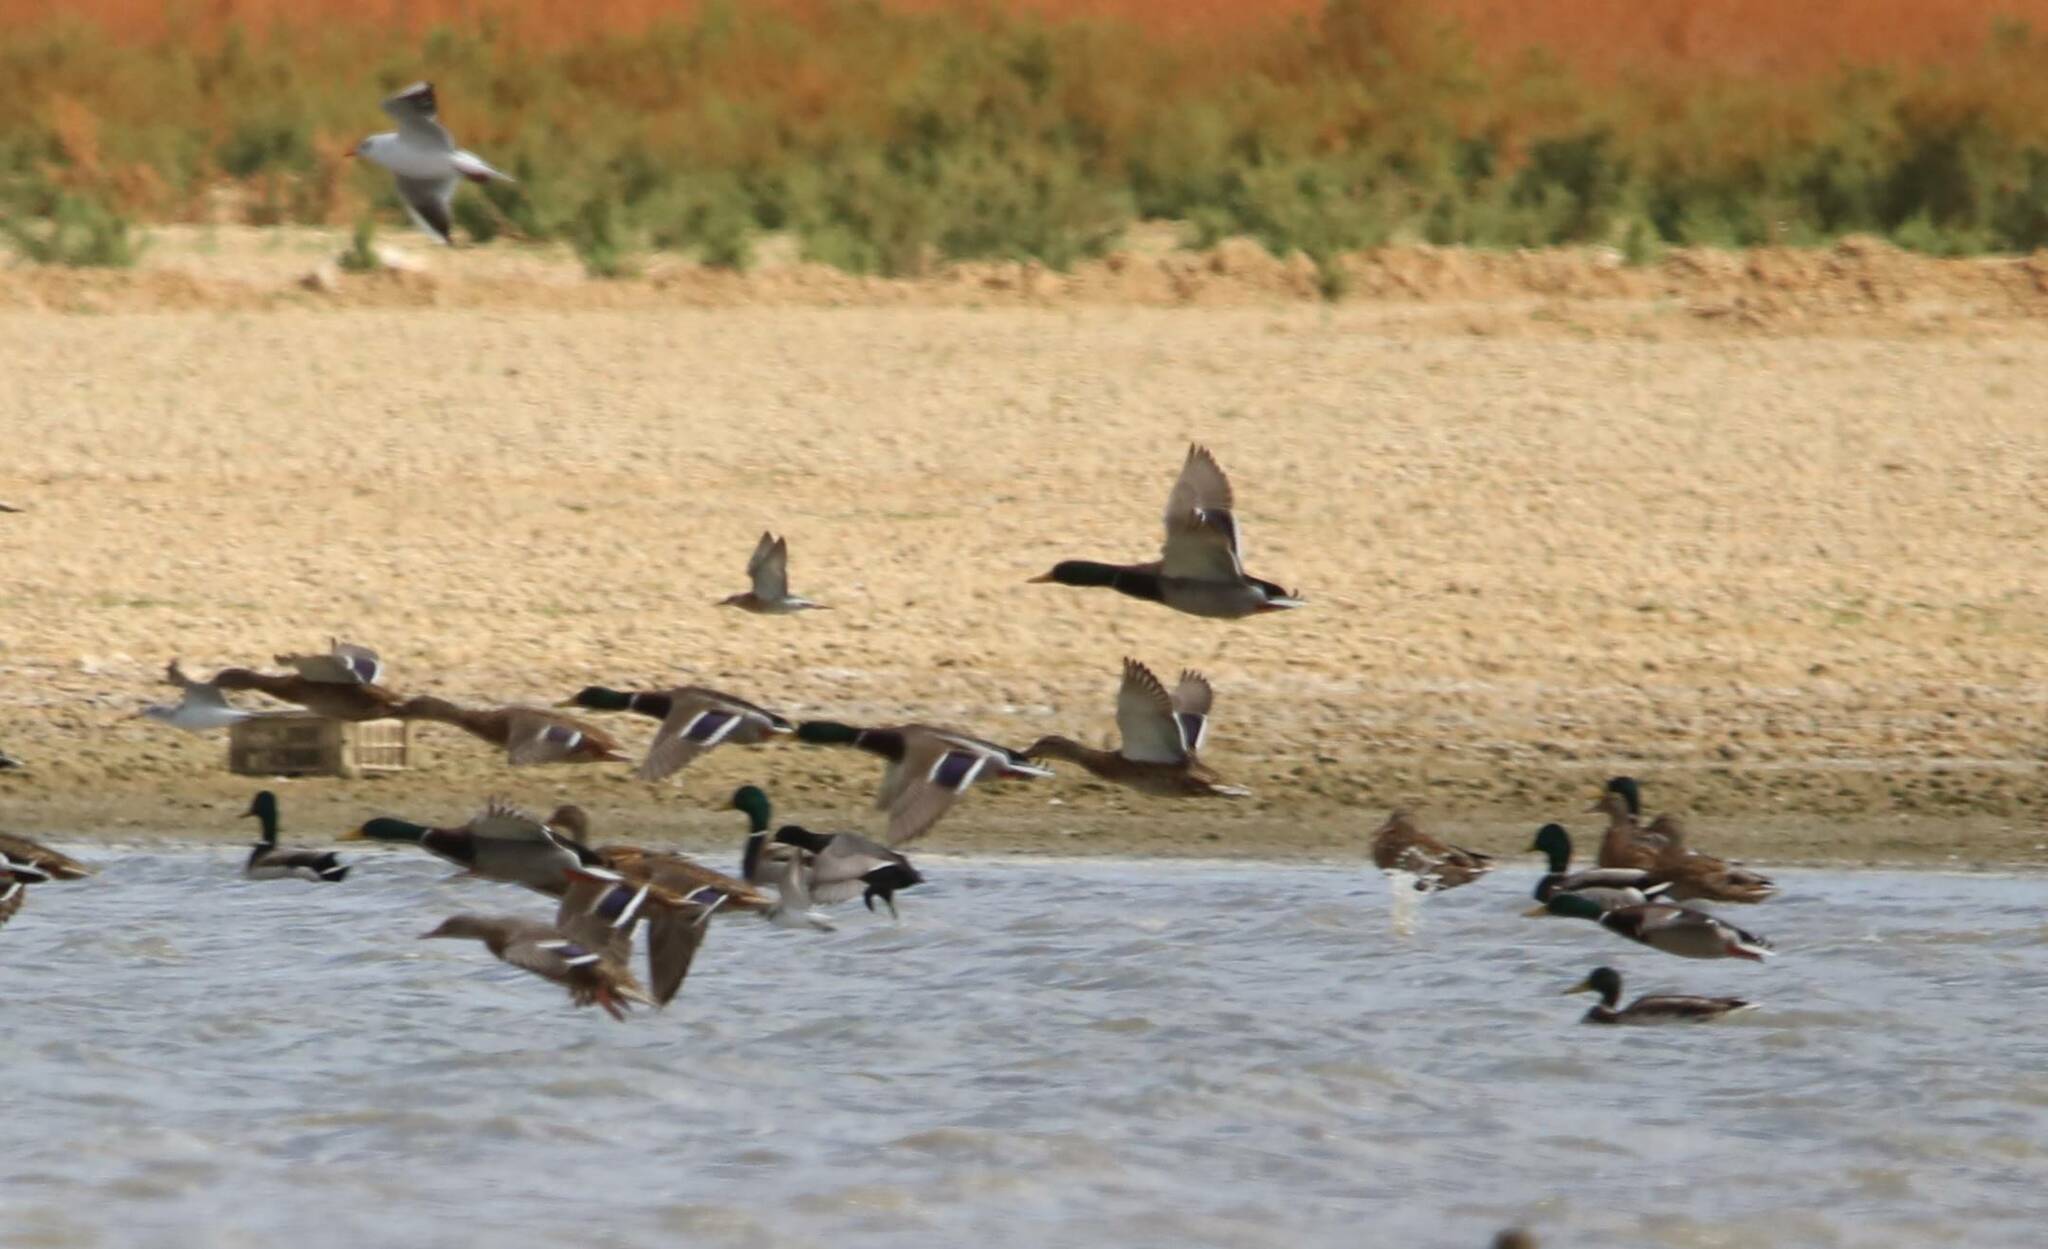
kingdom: Animalia
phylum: Chordata
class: Aves
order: Anseriformes
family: Anatidae
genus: Anas
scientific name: Anas platyrhynchos
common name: Mallard
